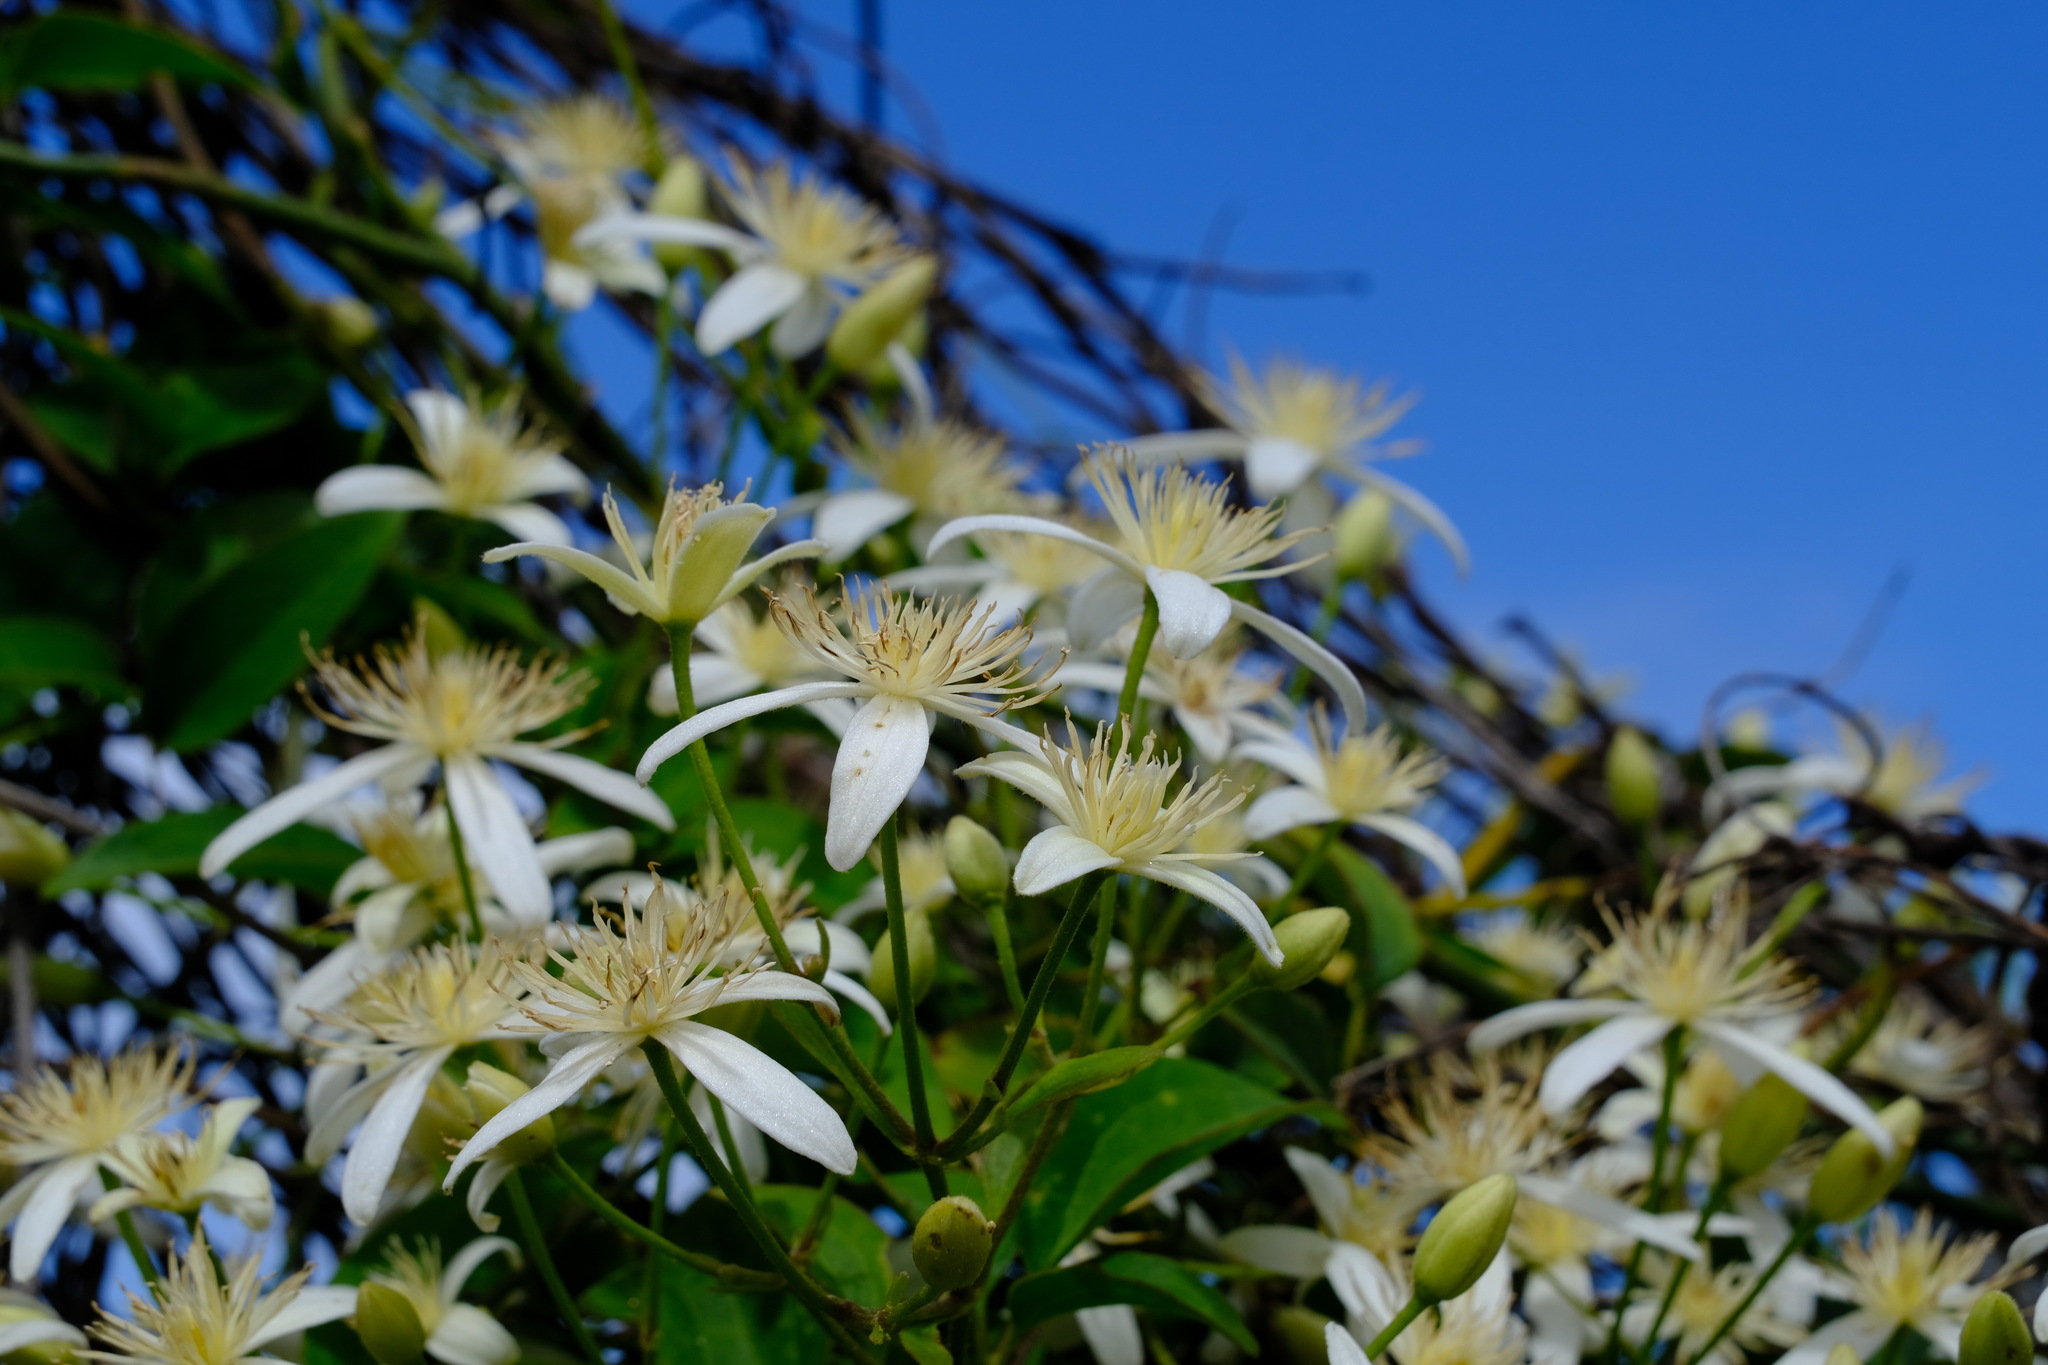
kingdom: Plantae
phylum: Tracheophyta
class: Magnoliopsida
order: Ranunculales
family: Ranunculaceae
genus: Clematis
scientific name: Clematis aristata
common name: Mountain clematis
